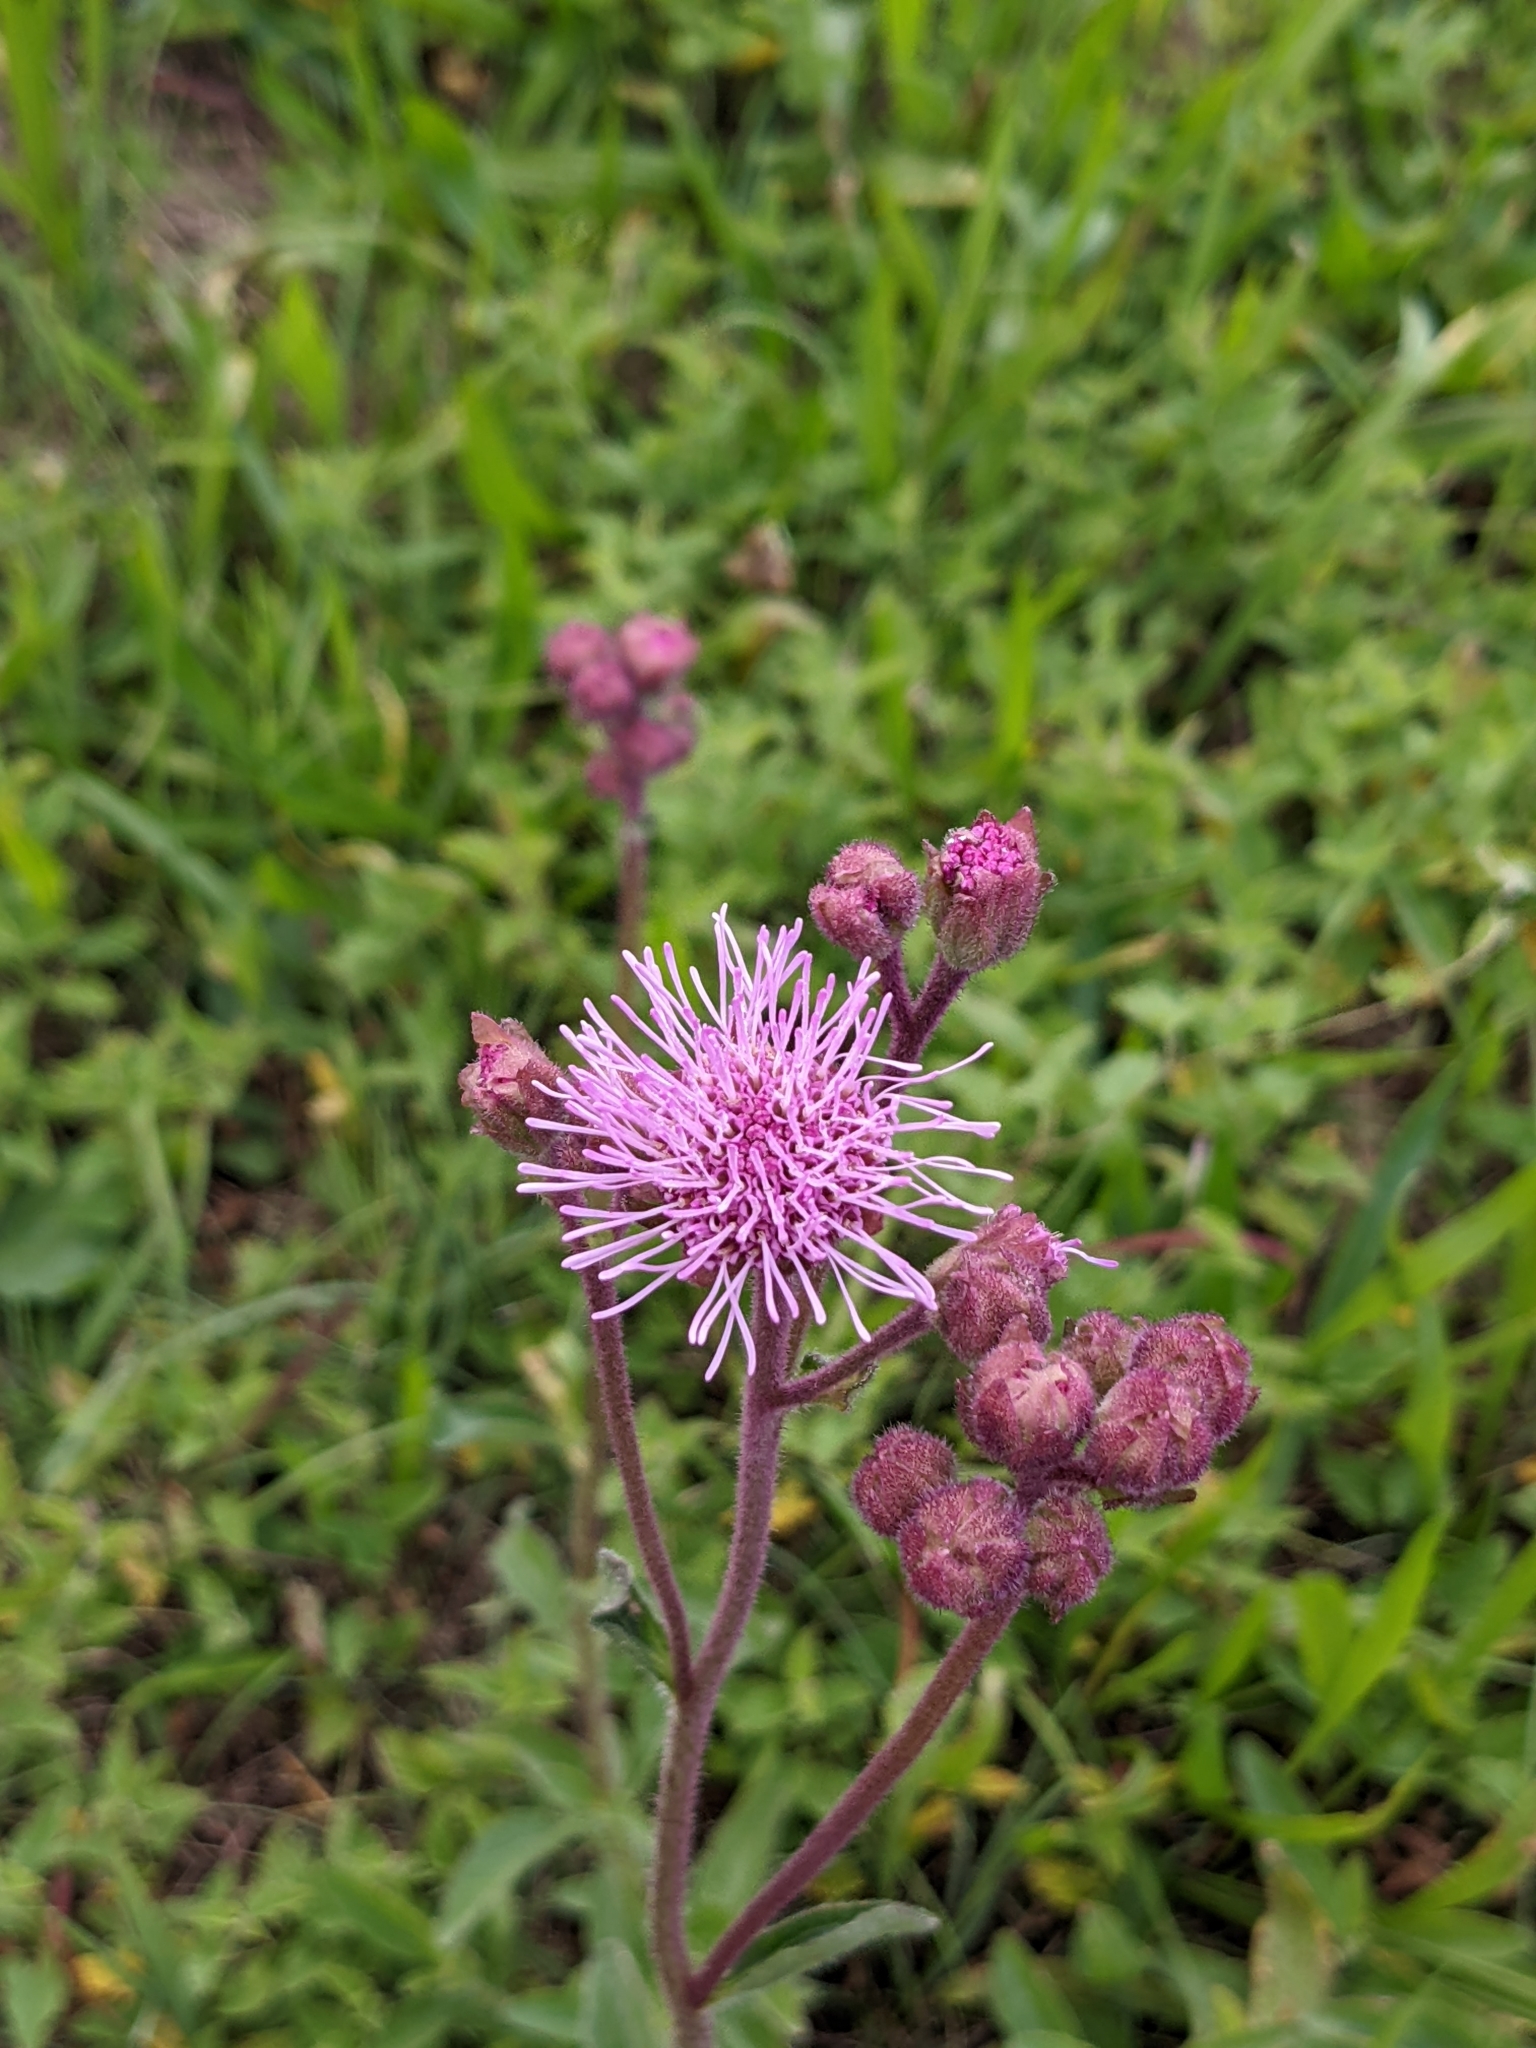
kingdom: Plantae
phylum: Tracheophyta
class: Magnoliopsida
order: Asterales
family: Asteraceae
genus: Campuloclinium
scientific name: Campuloclinium macrocephalum
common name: Pompomweed
